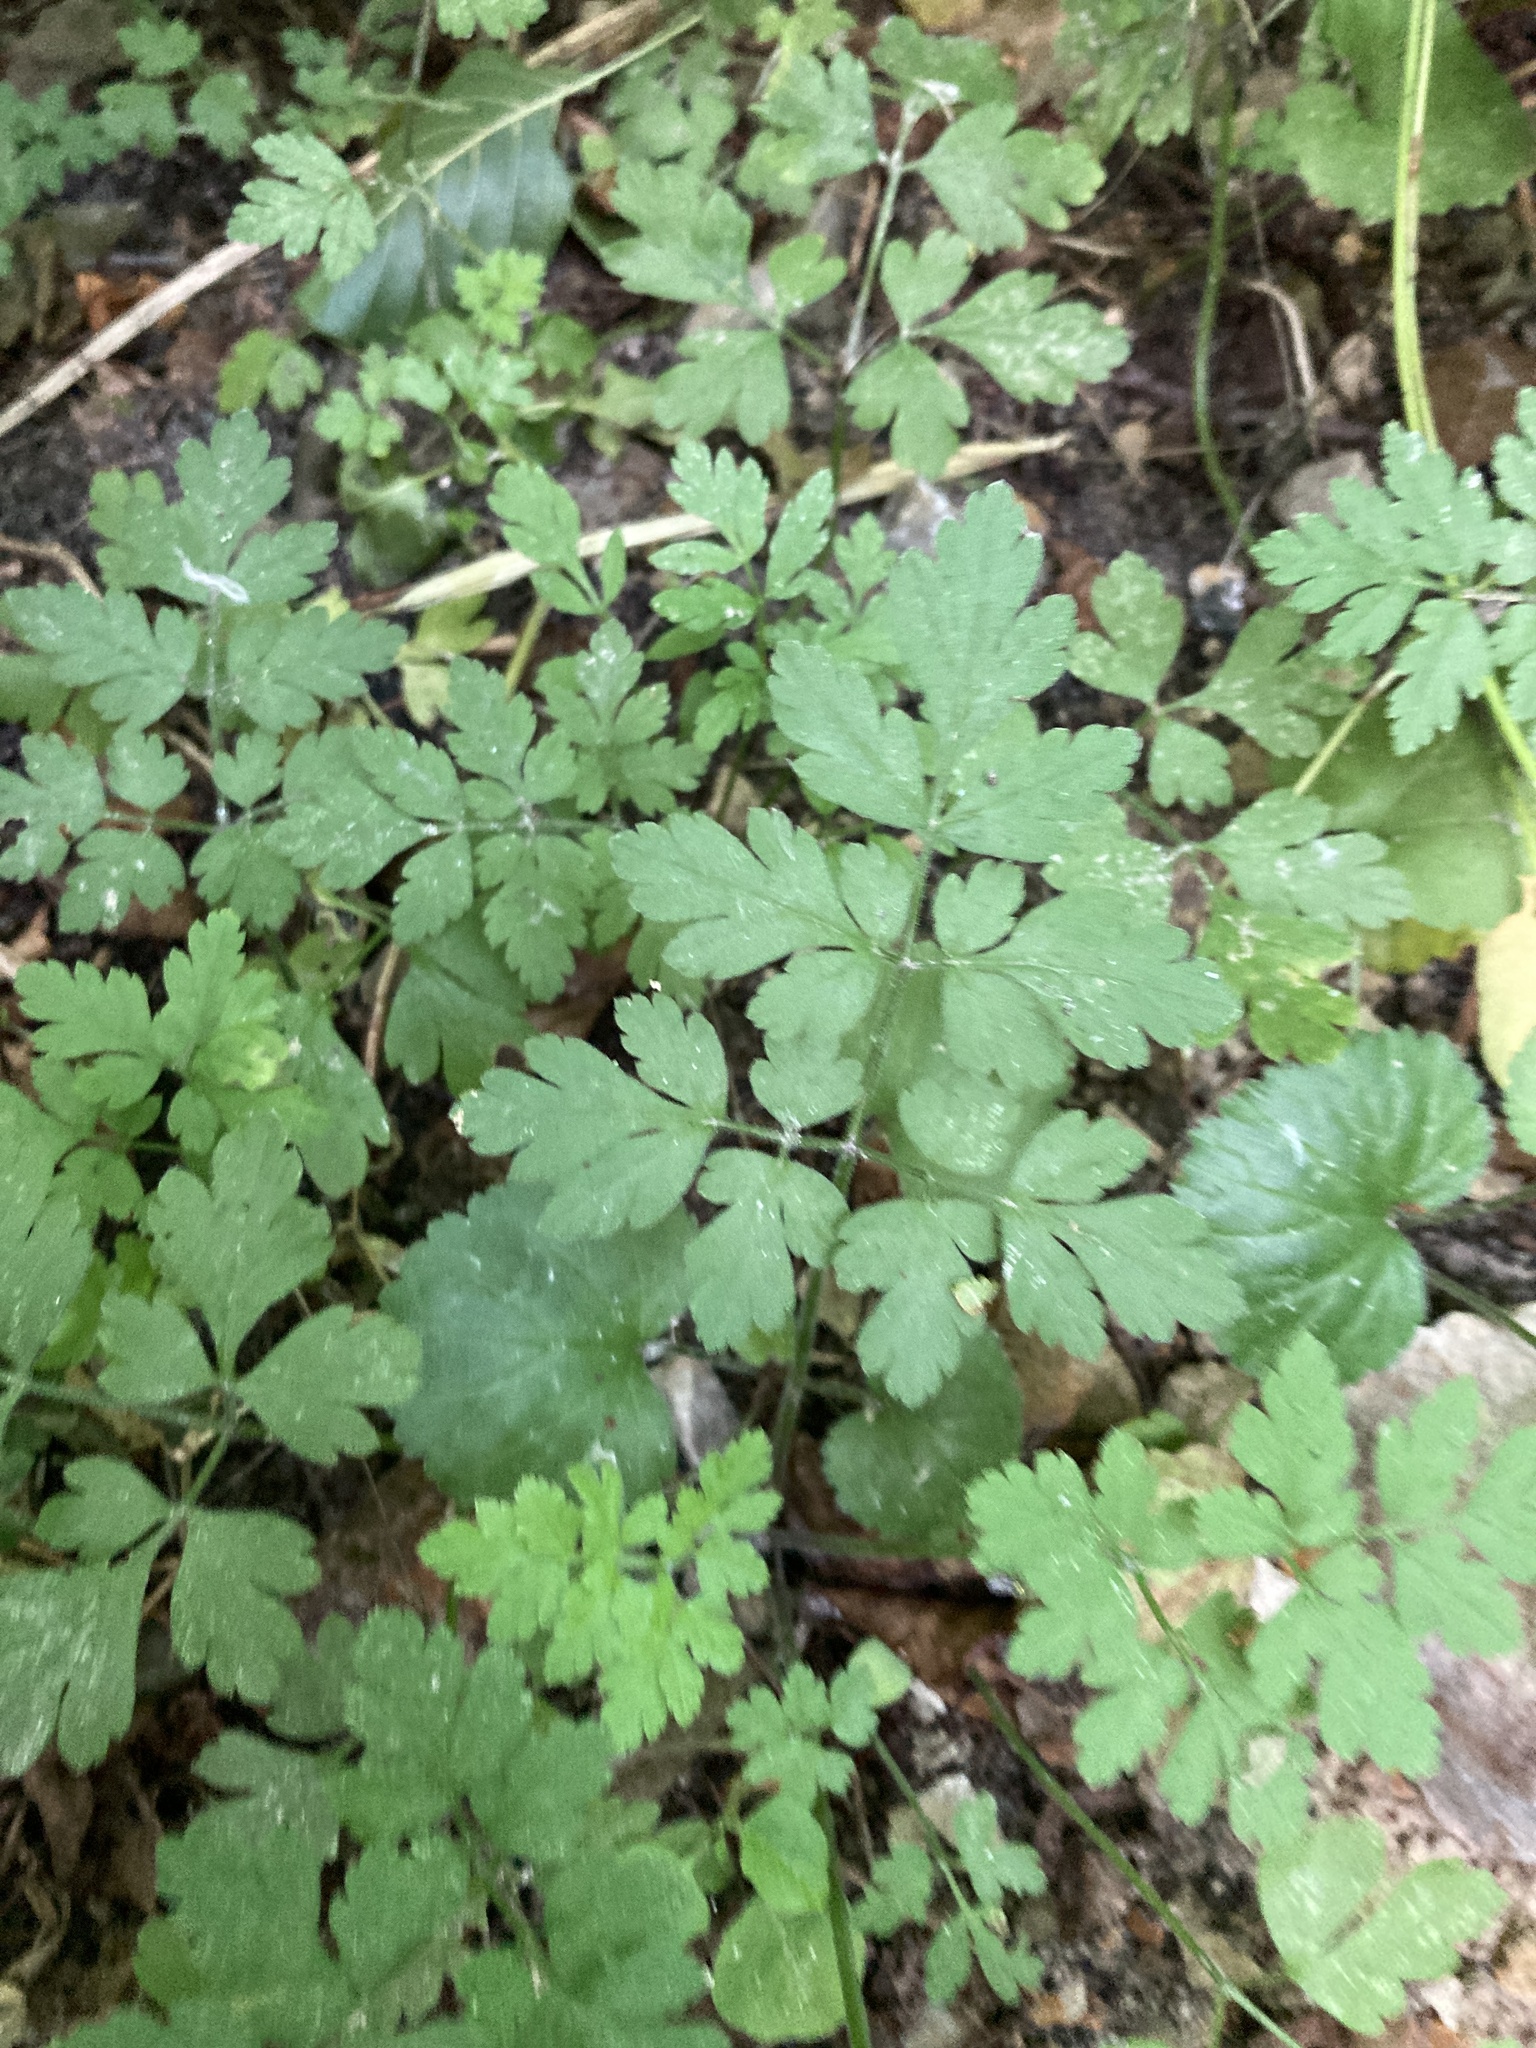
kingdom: Plantae
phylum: Tracheophyta
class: Magnoliopsida
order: Apiales
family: Apiaceae
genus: Chaerophyllum
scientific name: Chaerophyllum temulum
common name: Rough chervil
